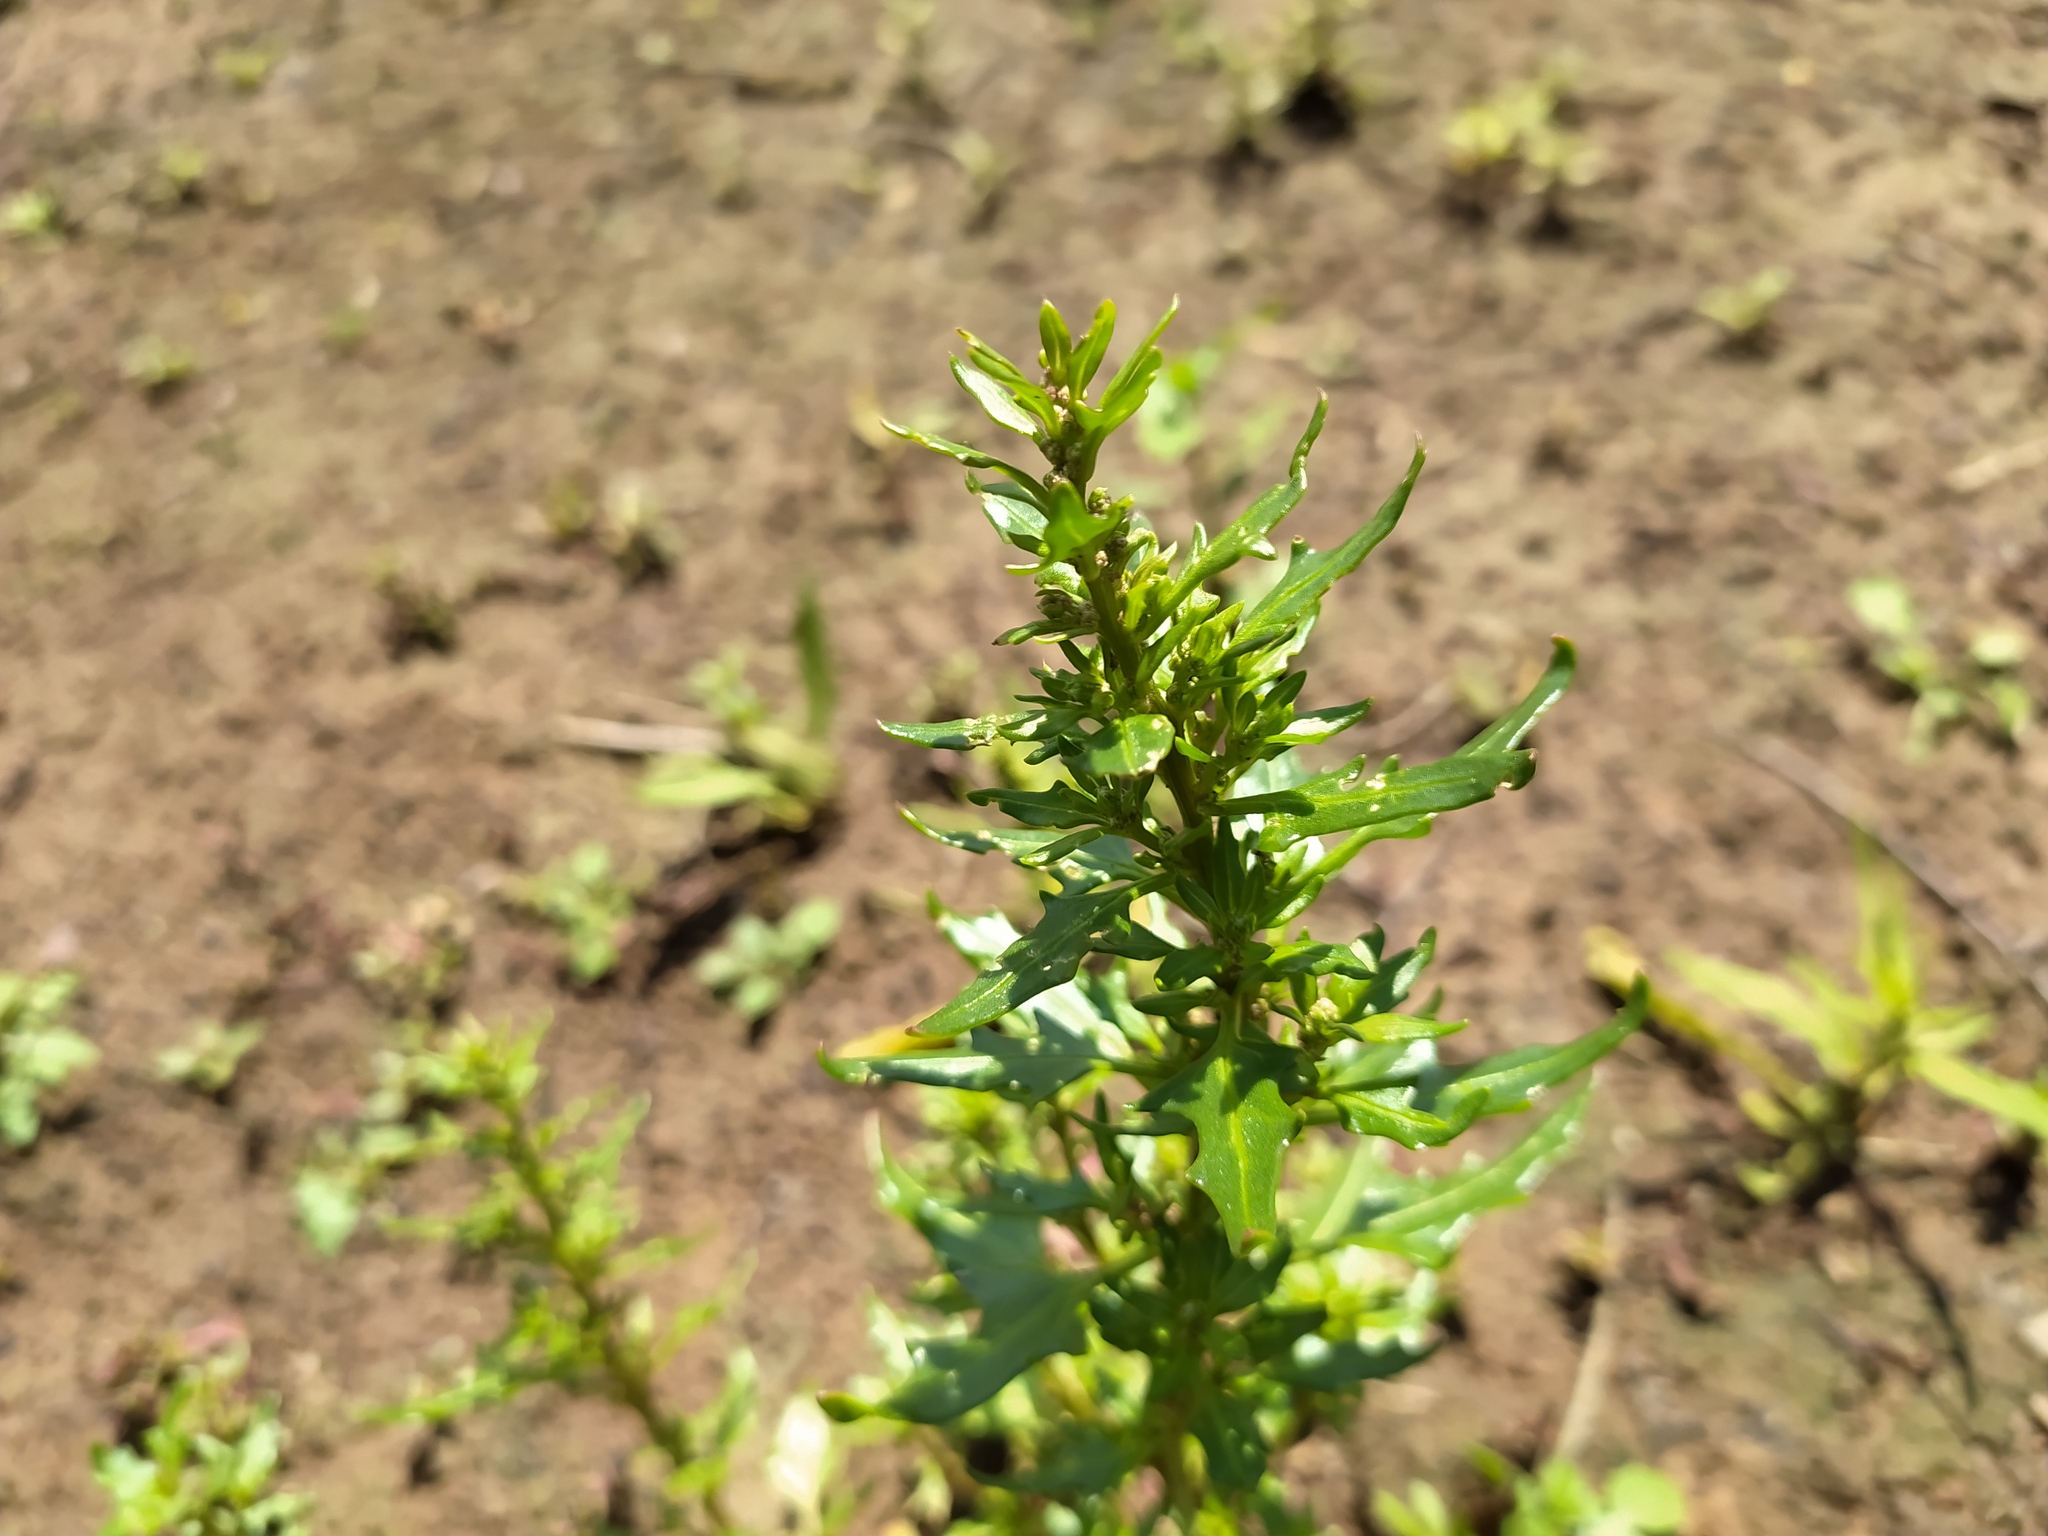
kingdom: Plantae
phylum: Tracheophyta
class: Magnoliopsida
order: Caryophyllales
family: Amaranthaceae
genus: Oxybasis
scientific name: Oxybasis rubra
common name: Red goosefoot
